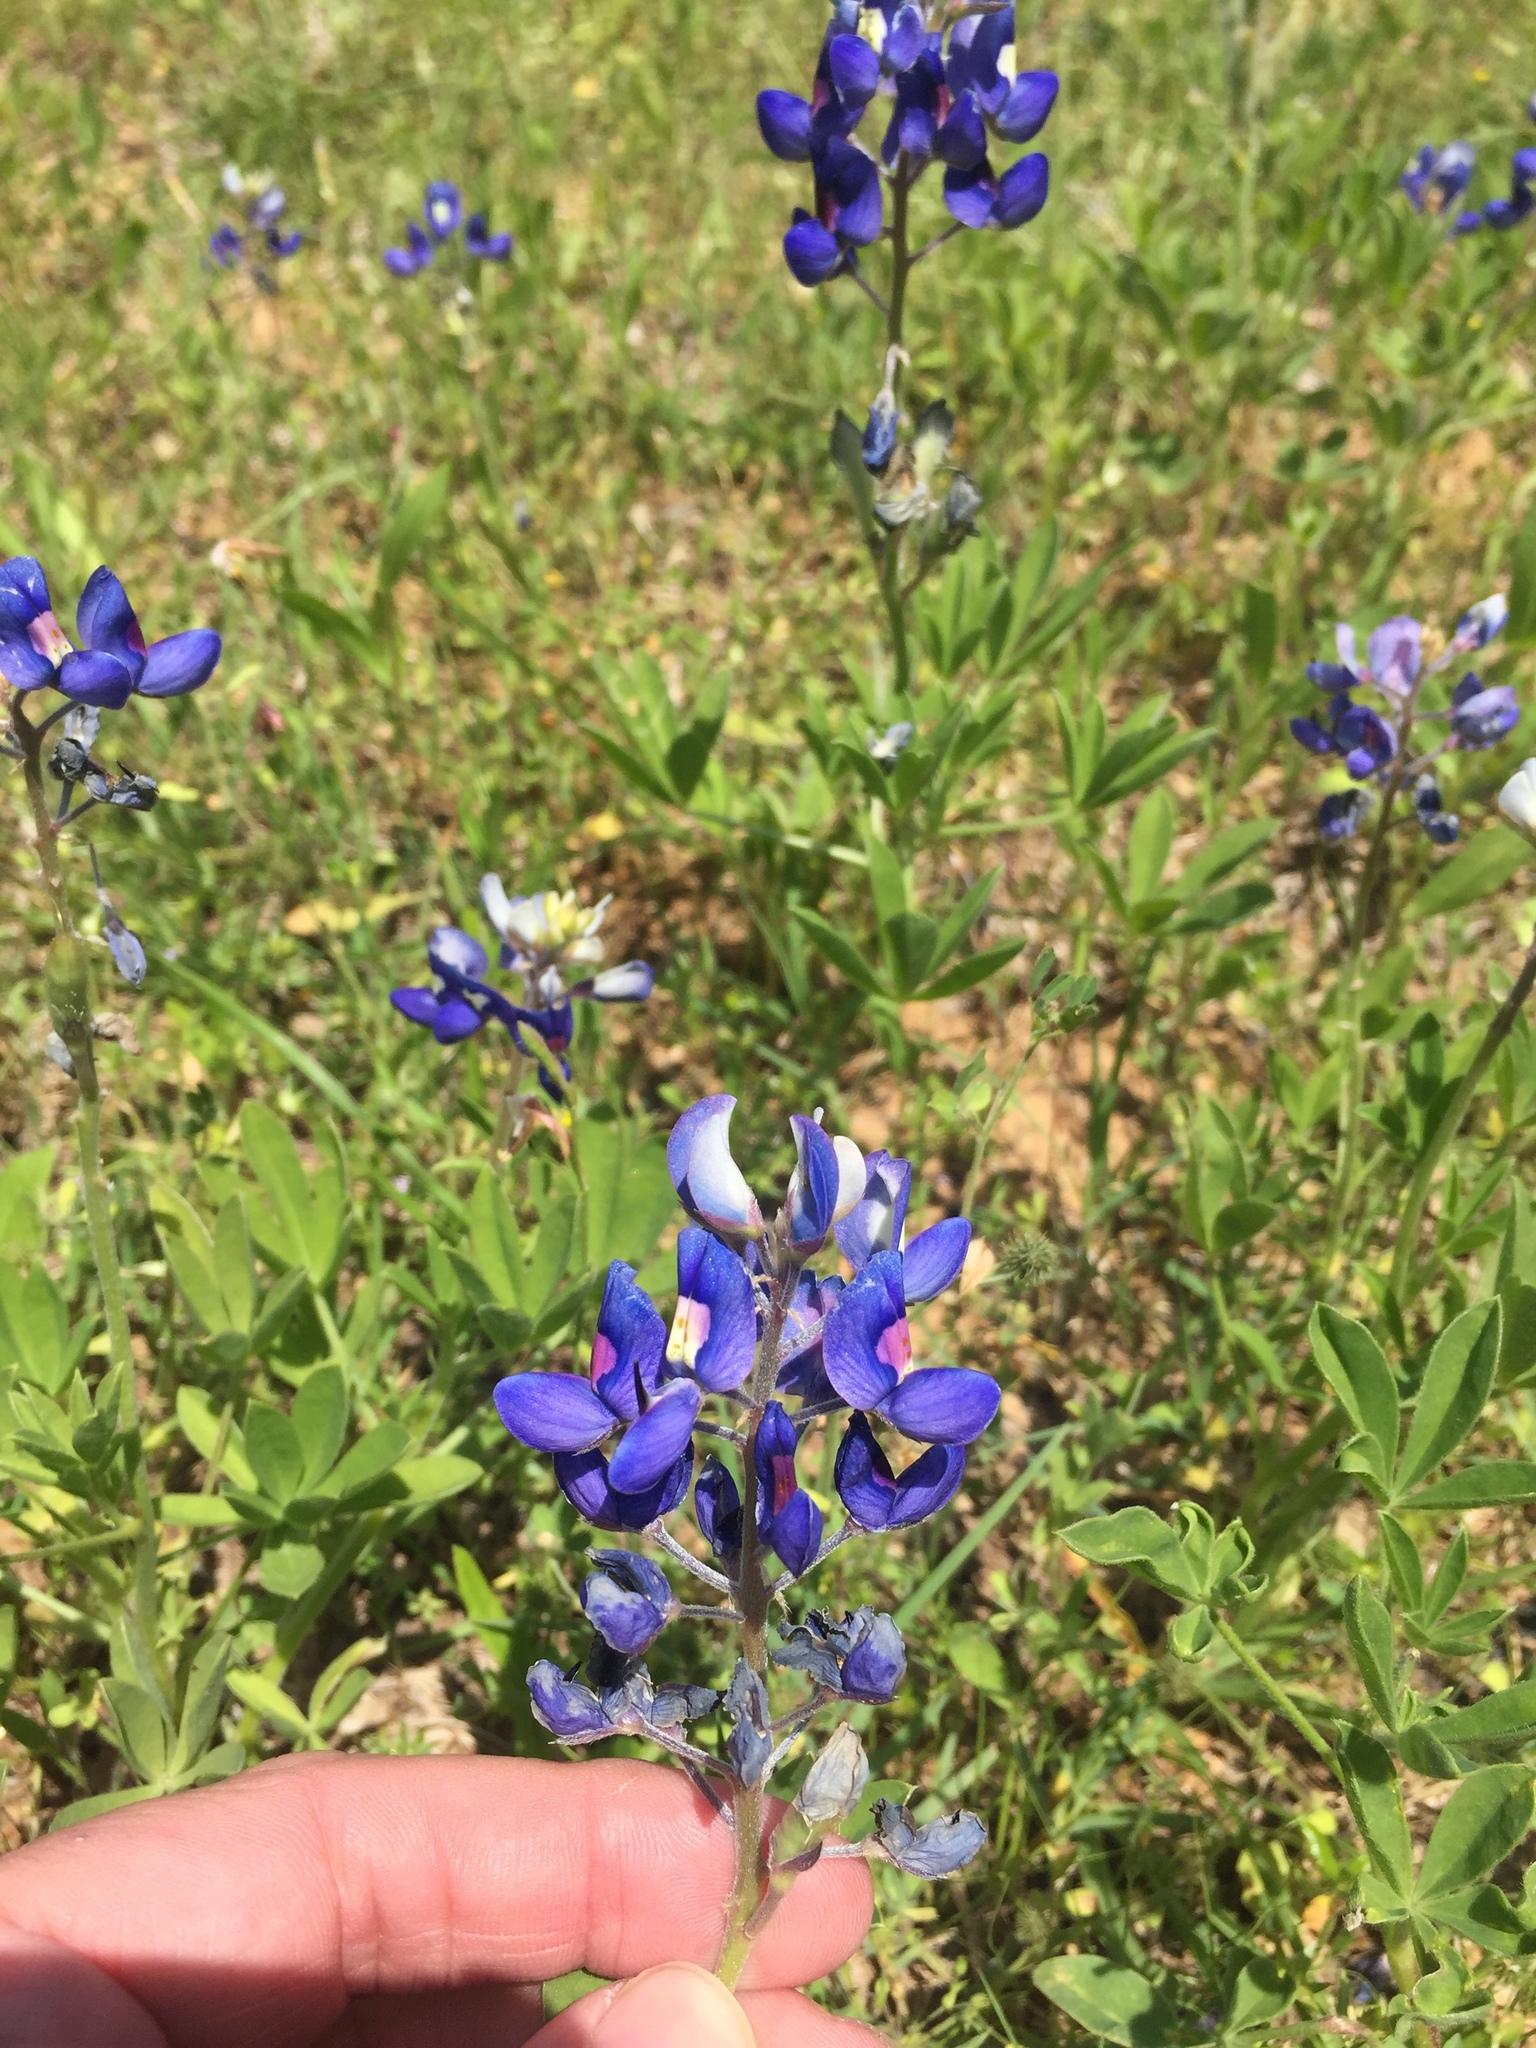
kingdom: Plantae
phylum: Tracheophyta
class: Magnoliopsida
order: Fabales
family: Fabaceae
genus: Lupinus
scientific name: Lupinus texensis
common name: Texas bluebonnet
